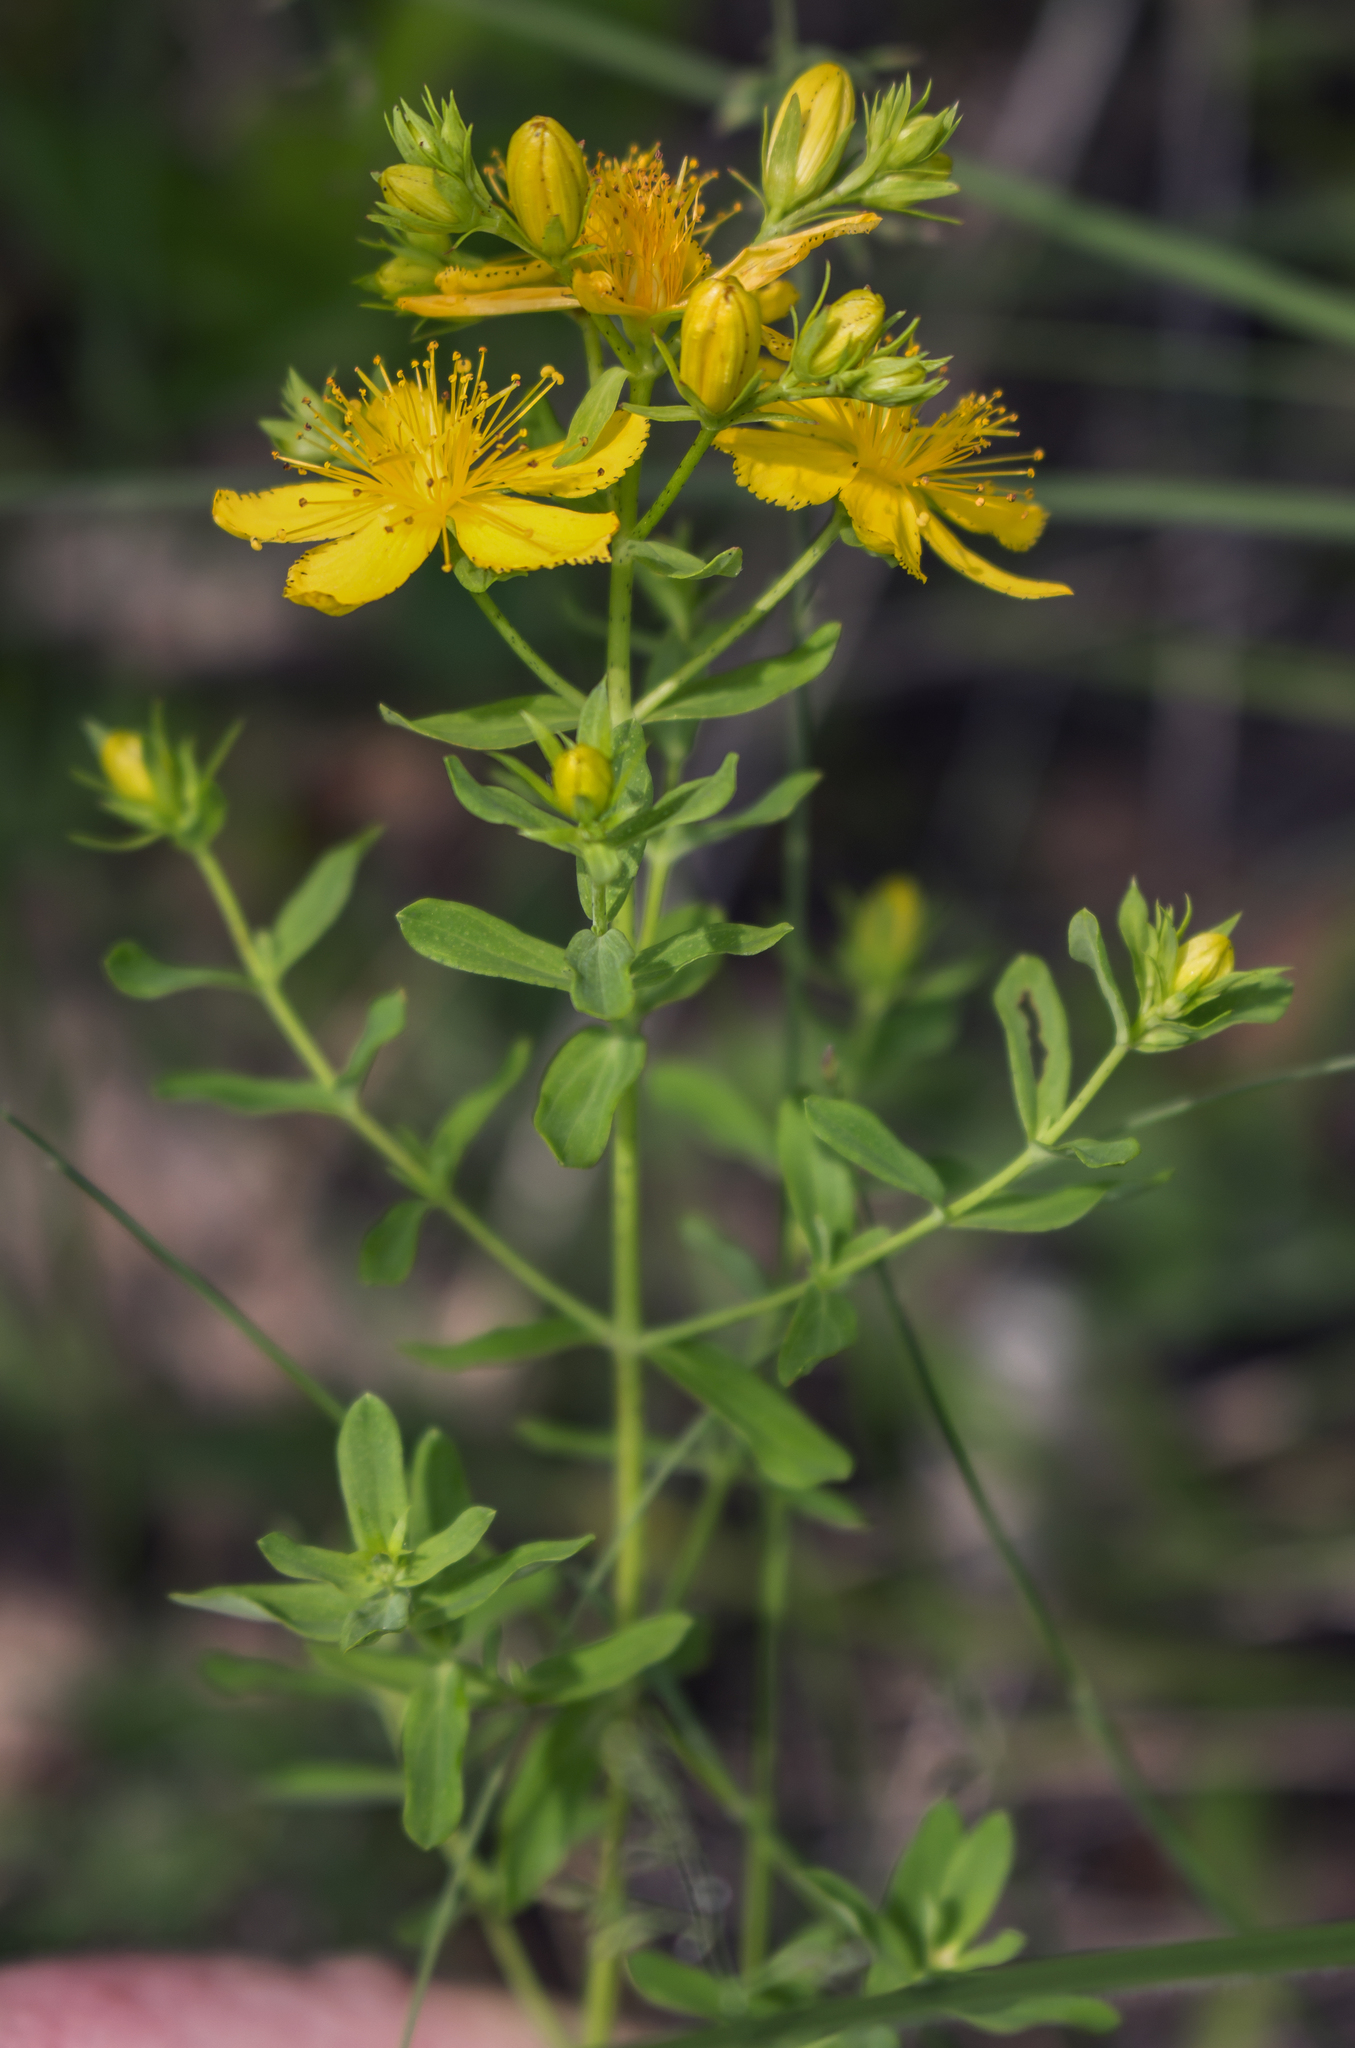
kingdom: Plantae
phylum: Tracheophyta
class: Magnoliopsida
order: Malpighiales
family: Hypericaceae
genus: Hypericum
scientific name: Hypericum perforatum
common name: Common st. johnswort
